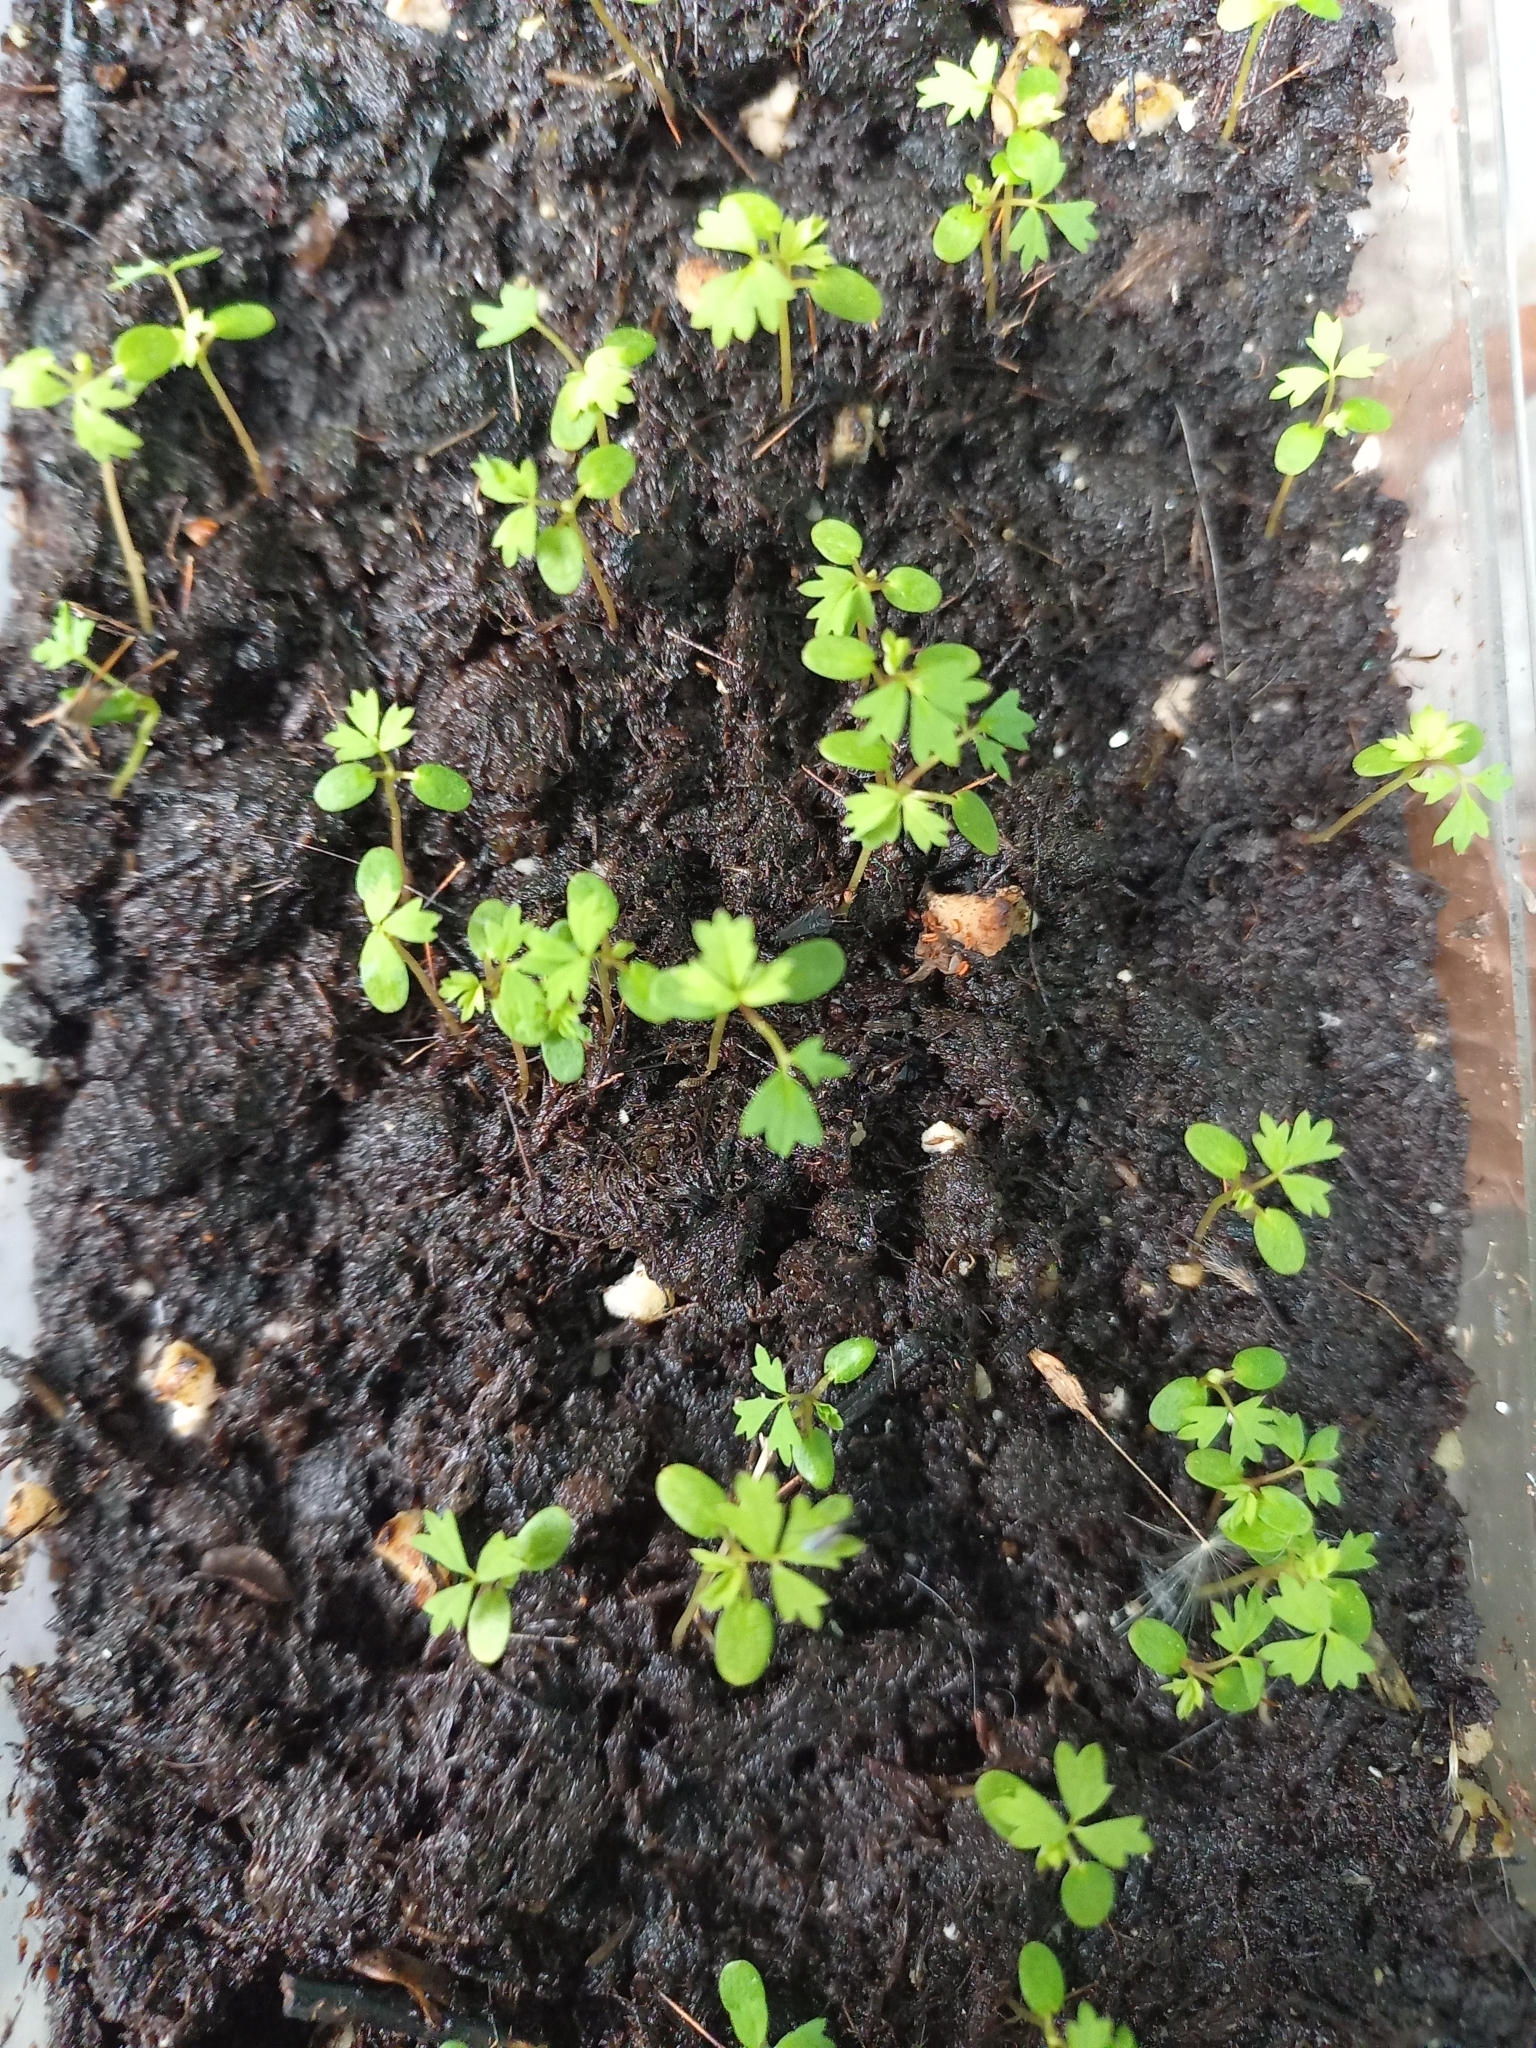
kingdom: Plantae
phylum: Tracheophyta
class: Magnoliopsida
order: Rosales
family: Rosaceae
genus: Acaena
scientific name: Acaena anserinifolia
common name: Bronze pirri-pirri-bur
